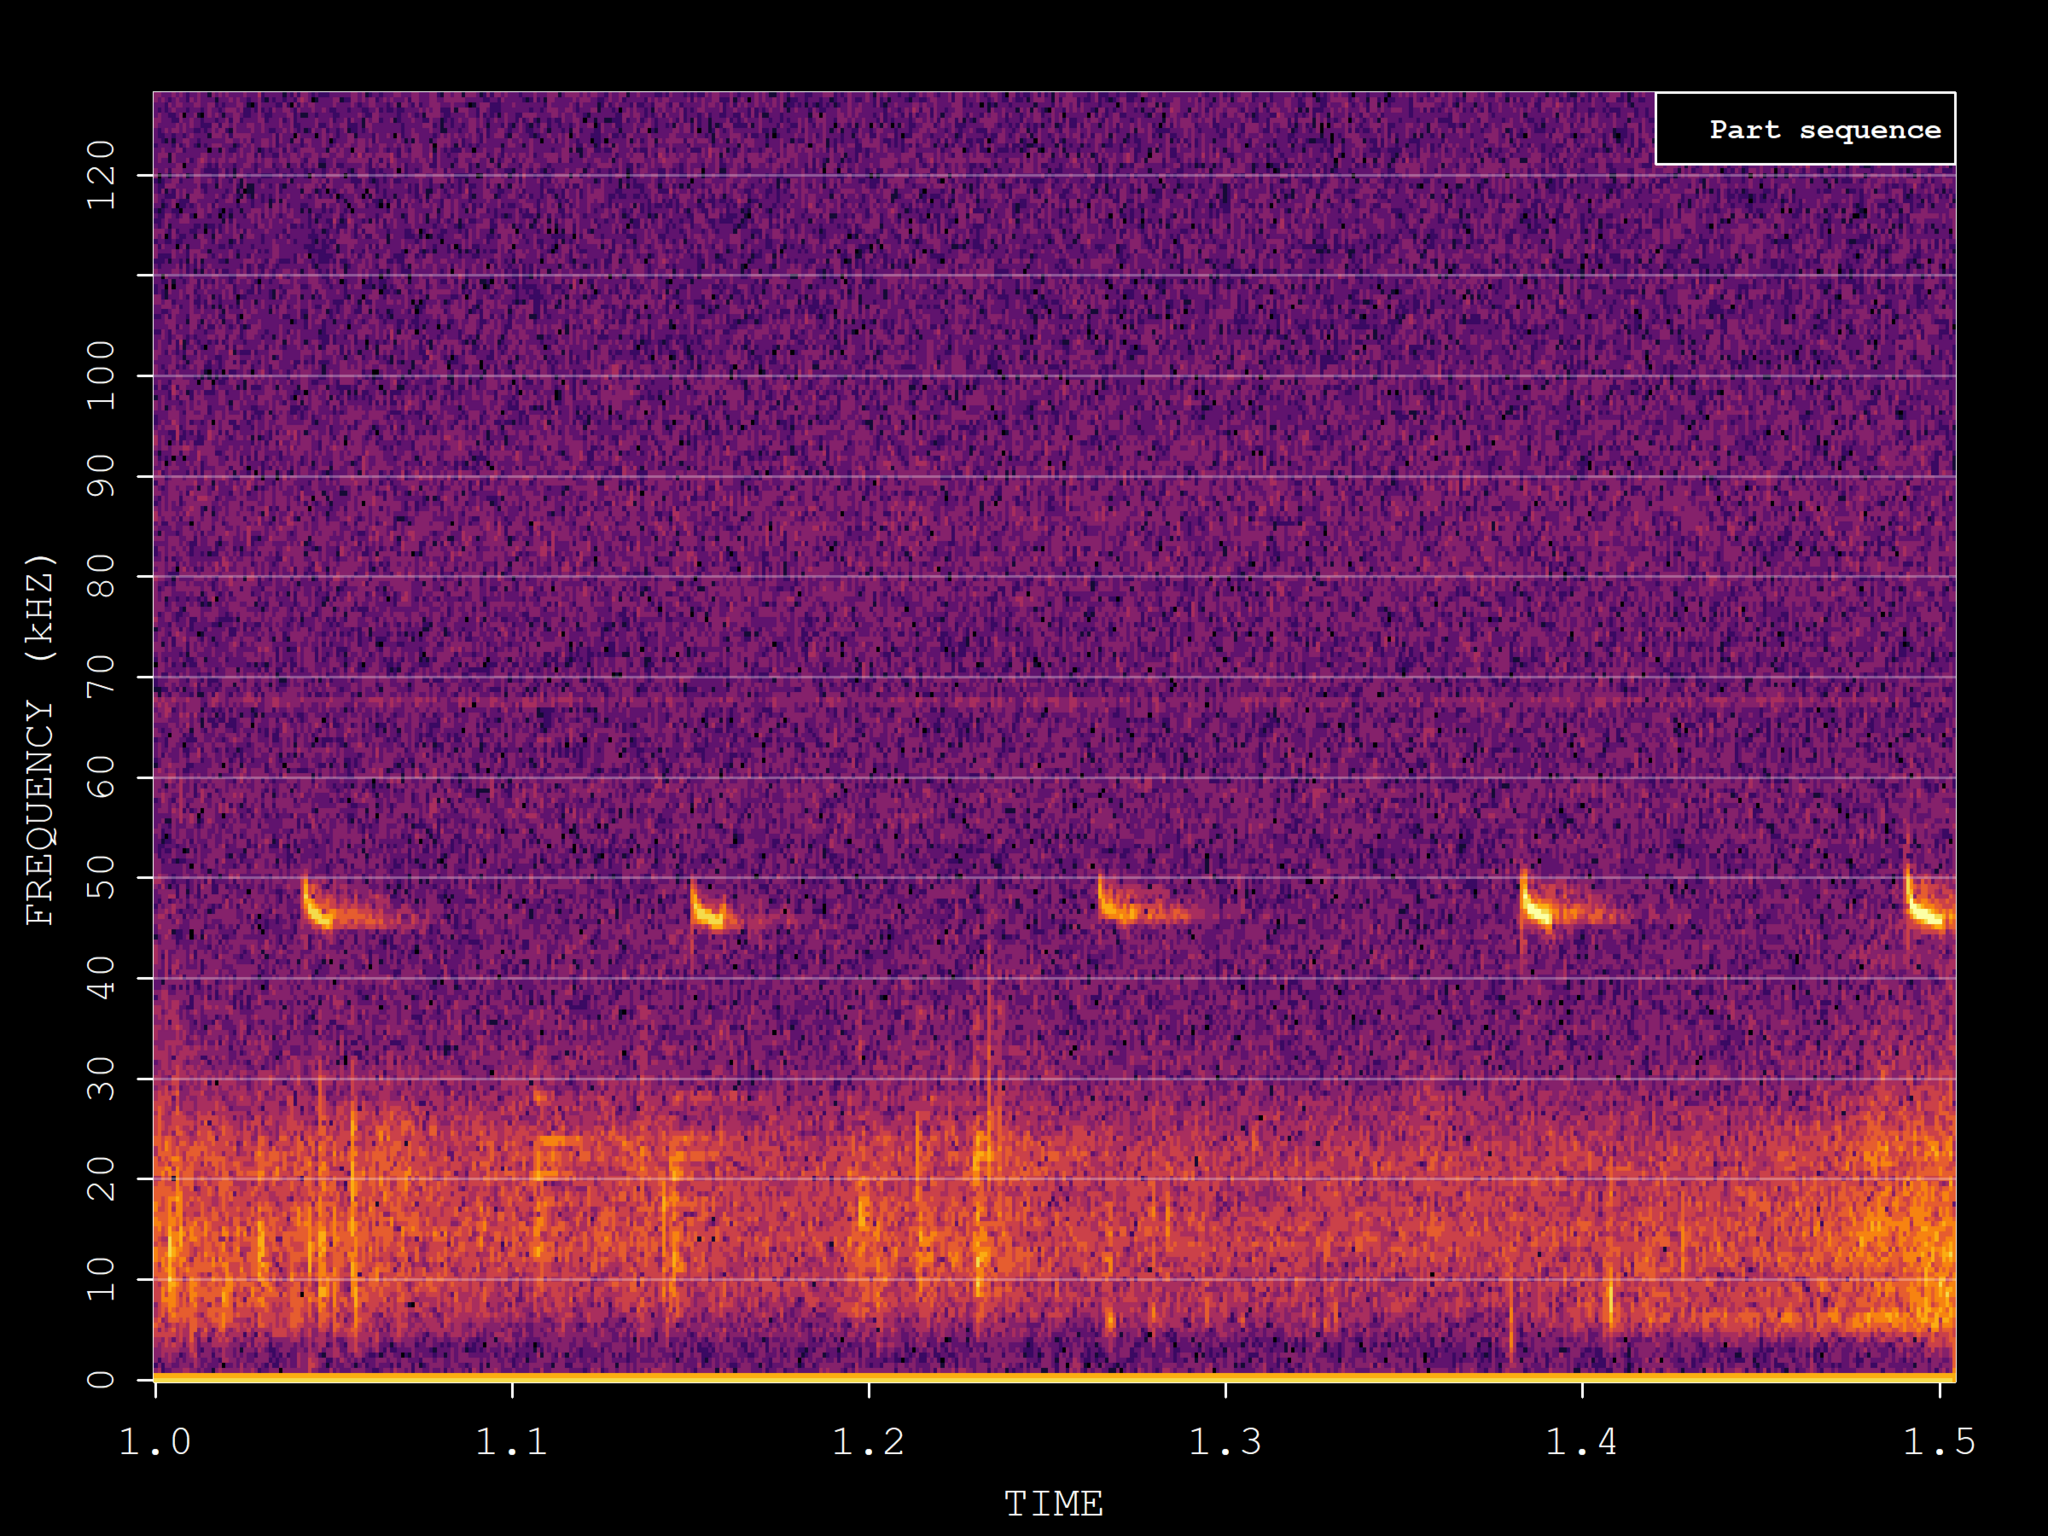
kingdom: Animalia
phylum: Chordata
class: Mammalia
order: Chiroptera
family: Vespertilionidae
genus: Pipistrellus
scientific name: Pipistrellus pipistrellus
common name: Common pipistrelle
